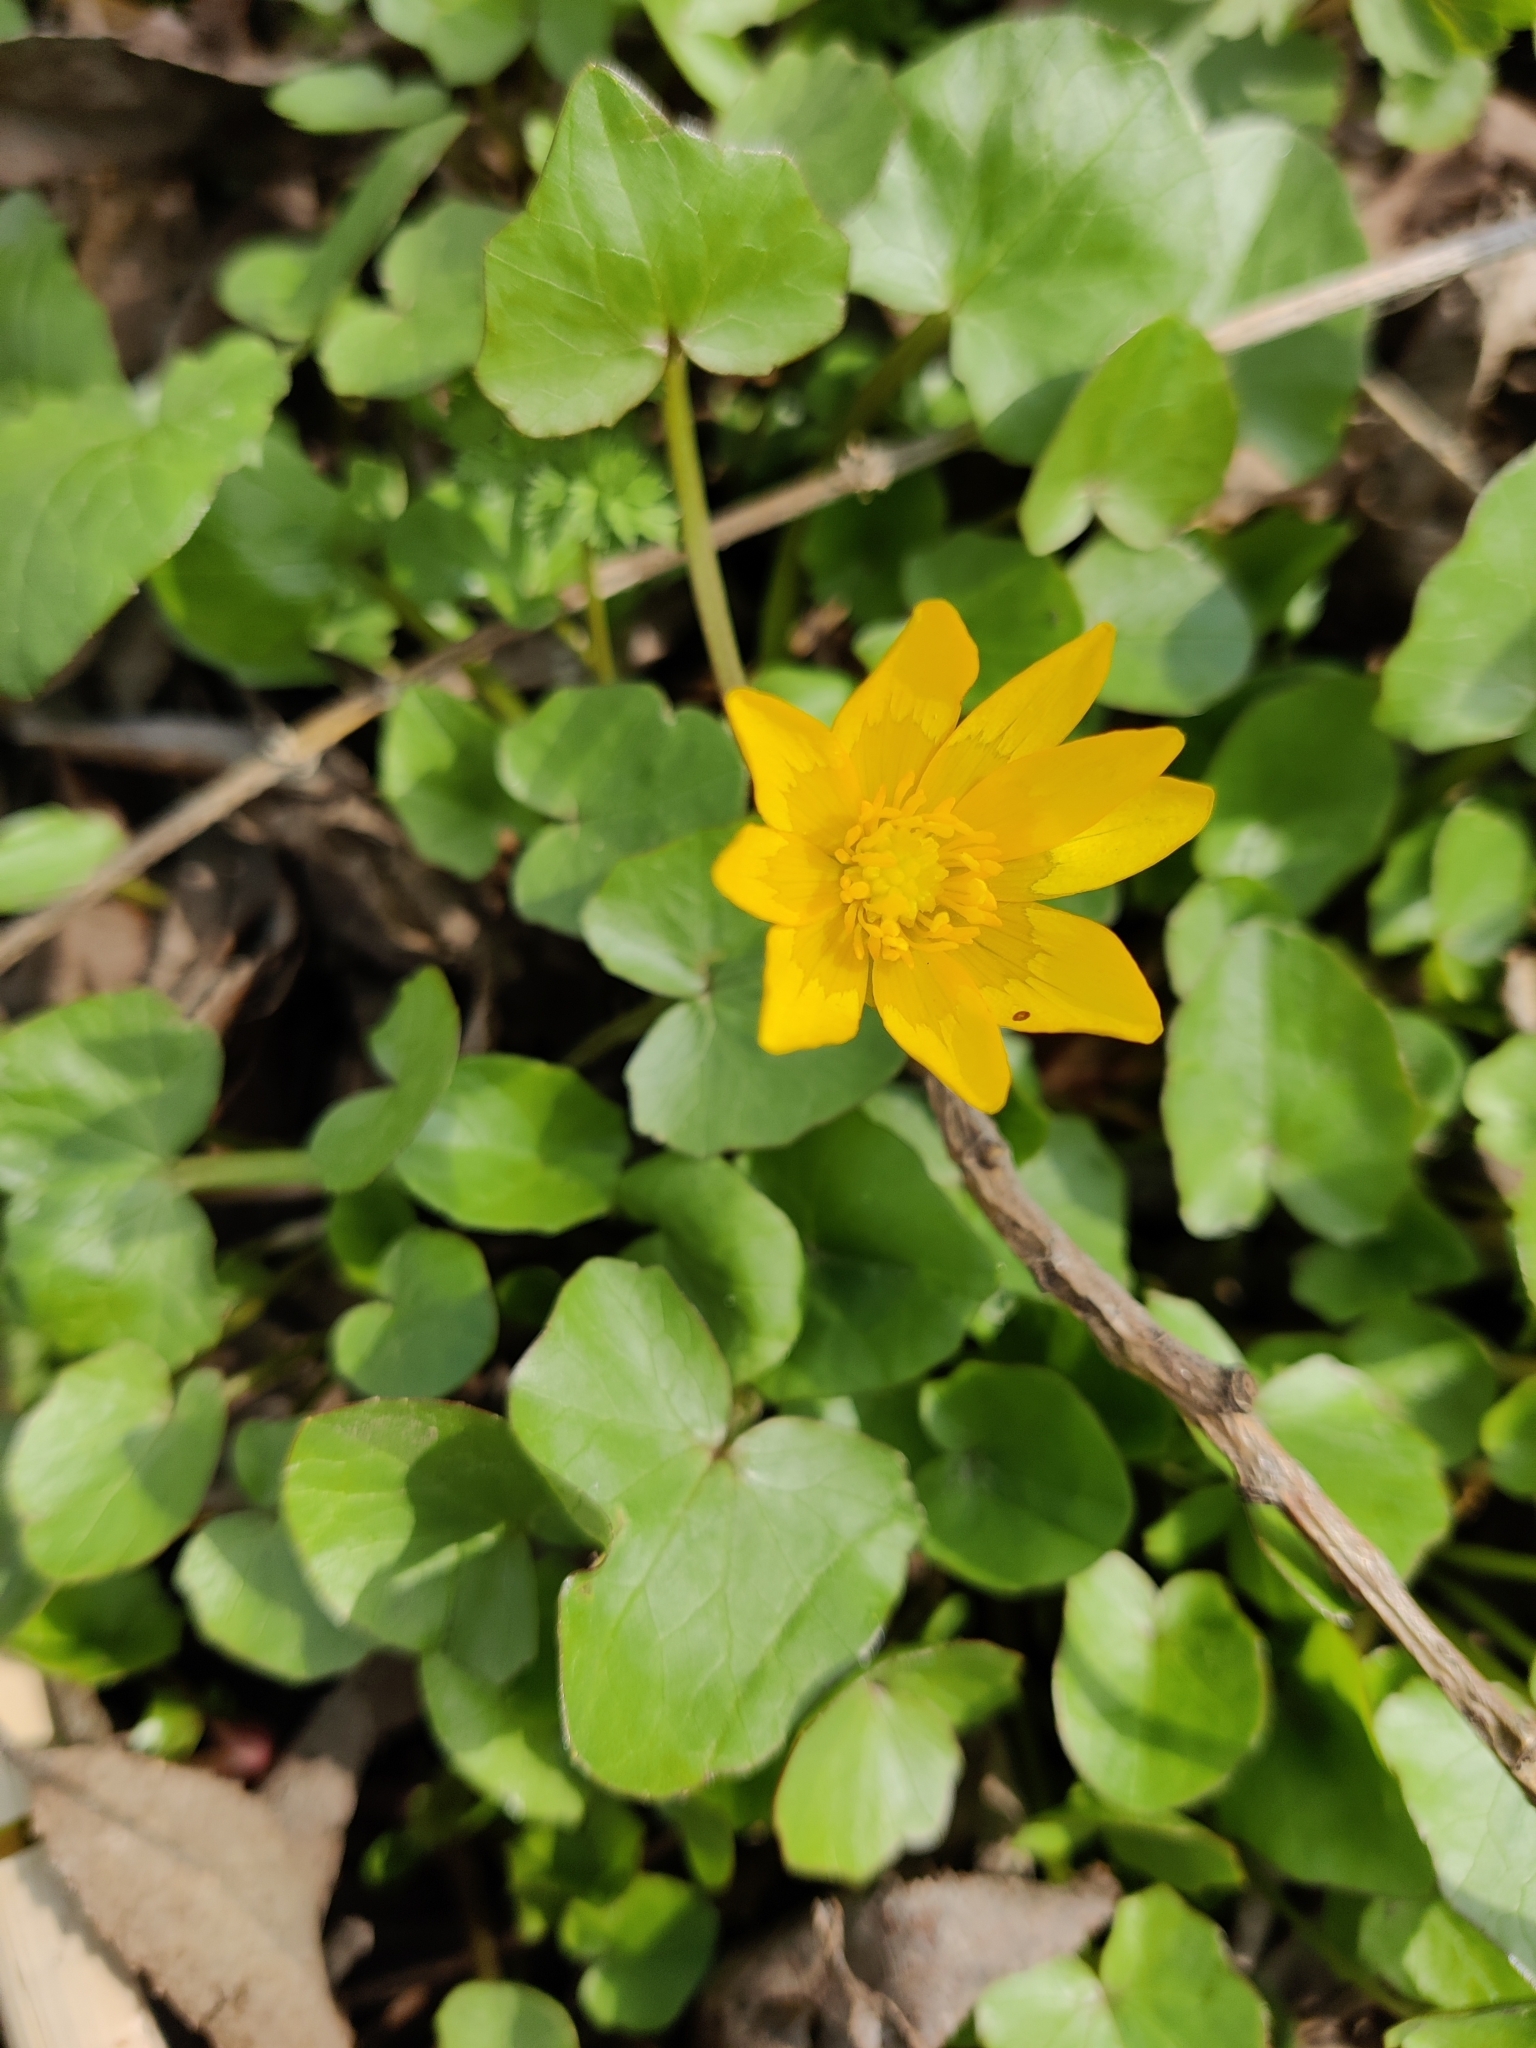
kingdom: Plantae
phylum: Tracheophyta
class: Magnoliopsida
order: Ranunculales
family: Ranunculaceae
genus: Ficaria
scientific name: Ficaria verna
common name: Lesser celandine
